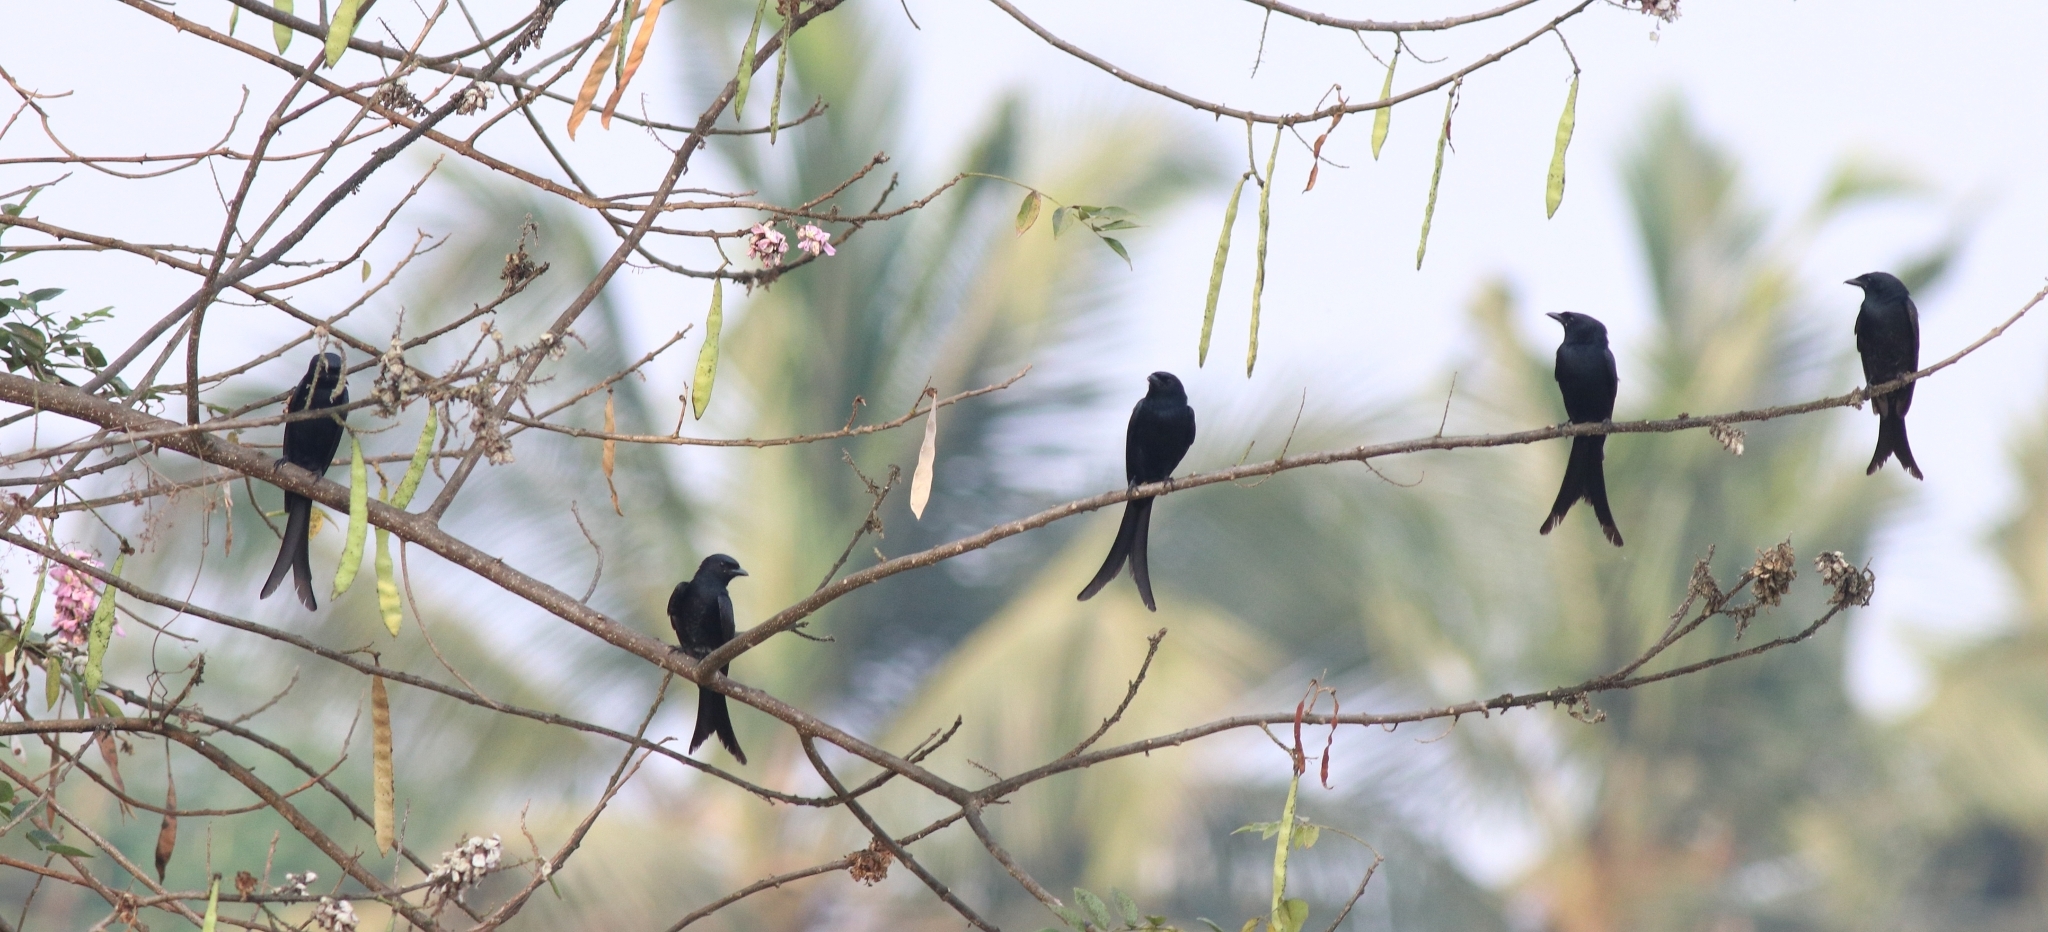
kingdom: Animalia
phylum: Chordata
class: Aves
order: Passeriformes
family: Dicruridae
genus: Dicrurus
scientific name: Dicrurus macrocercus
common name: Black drongo
